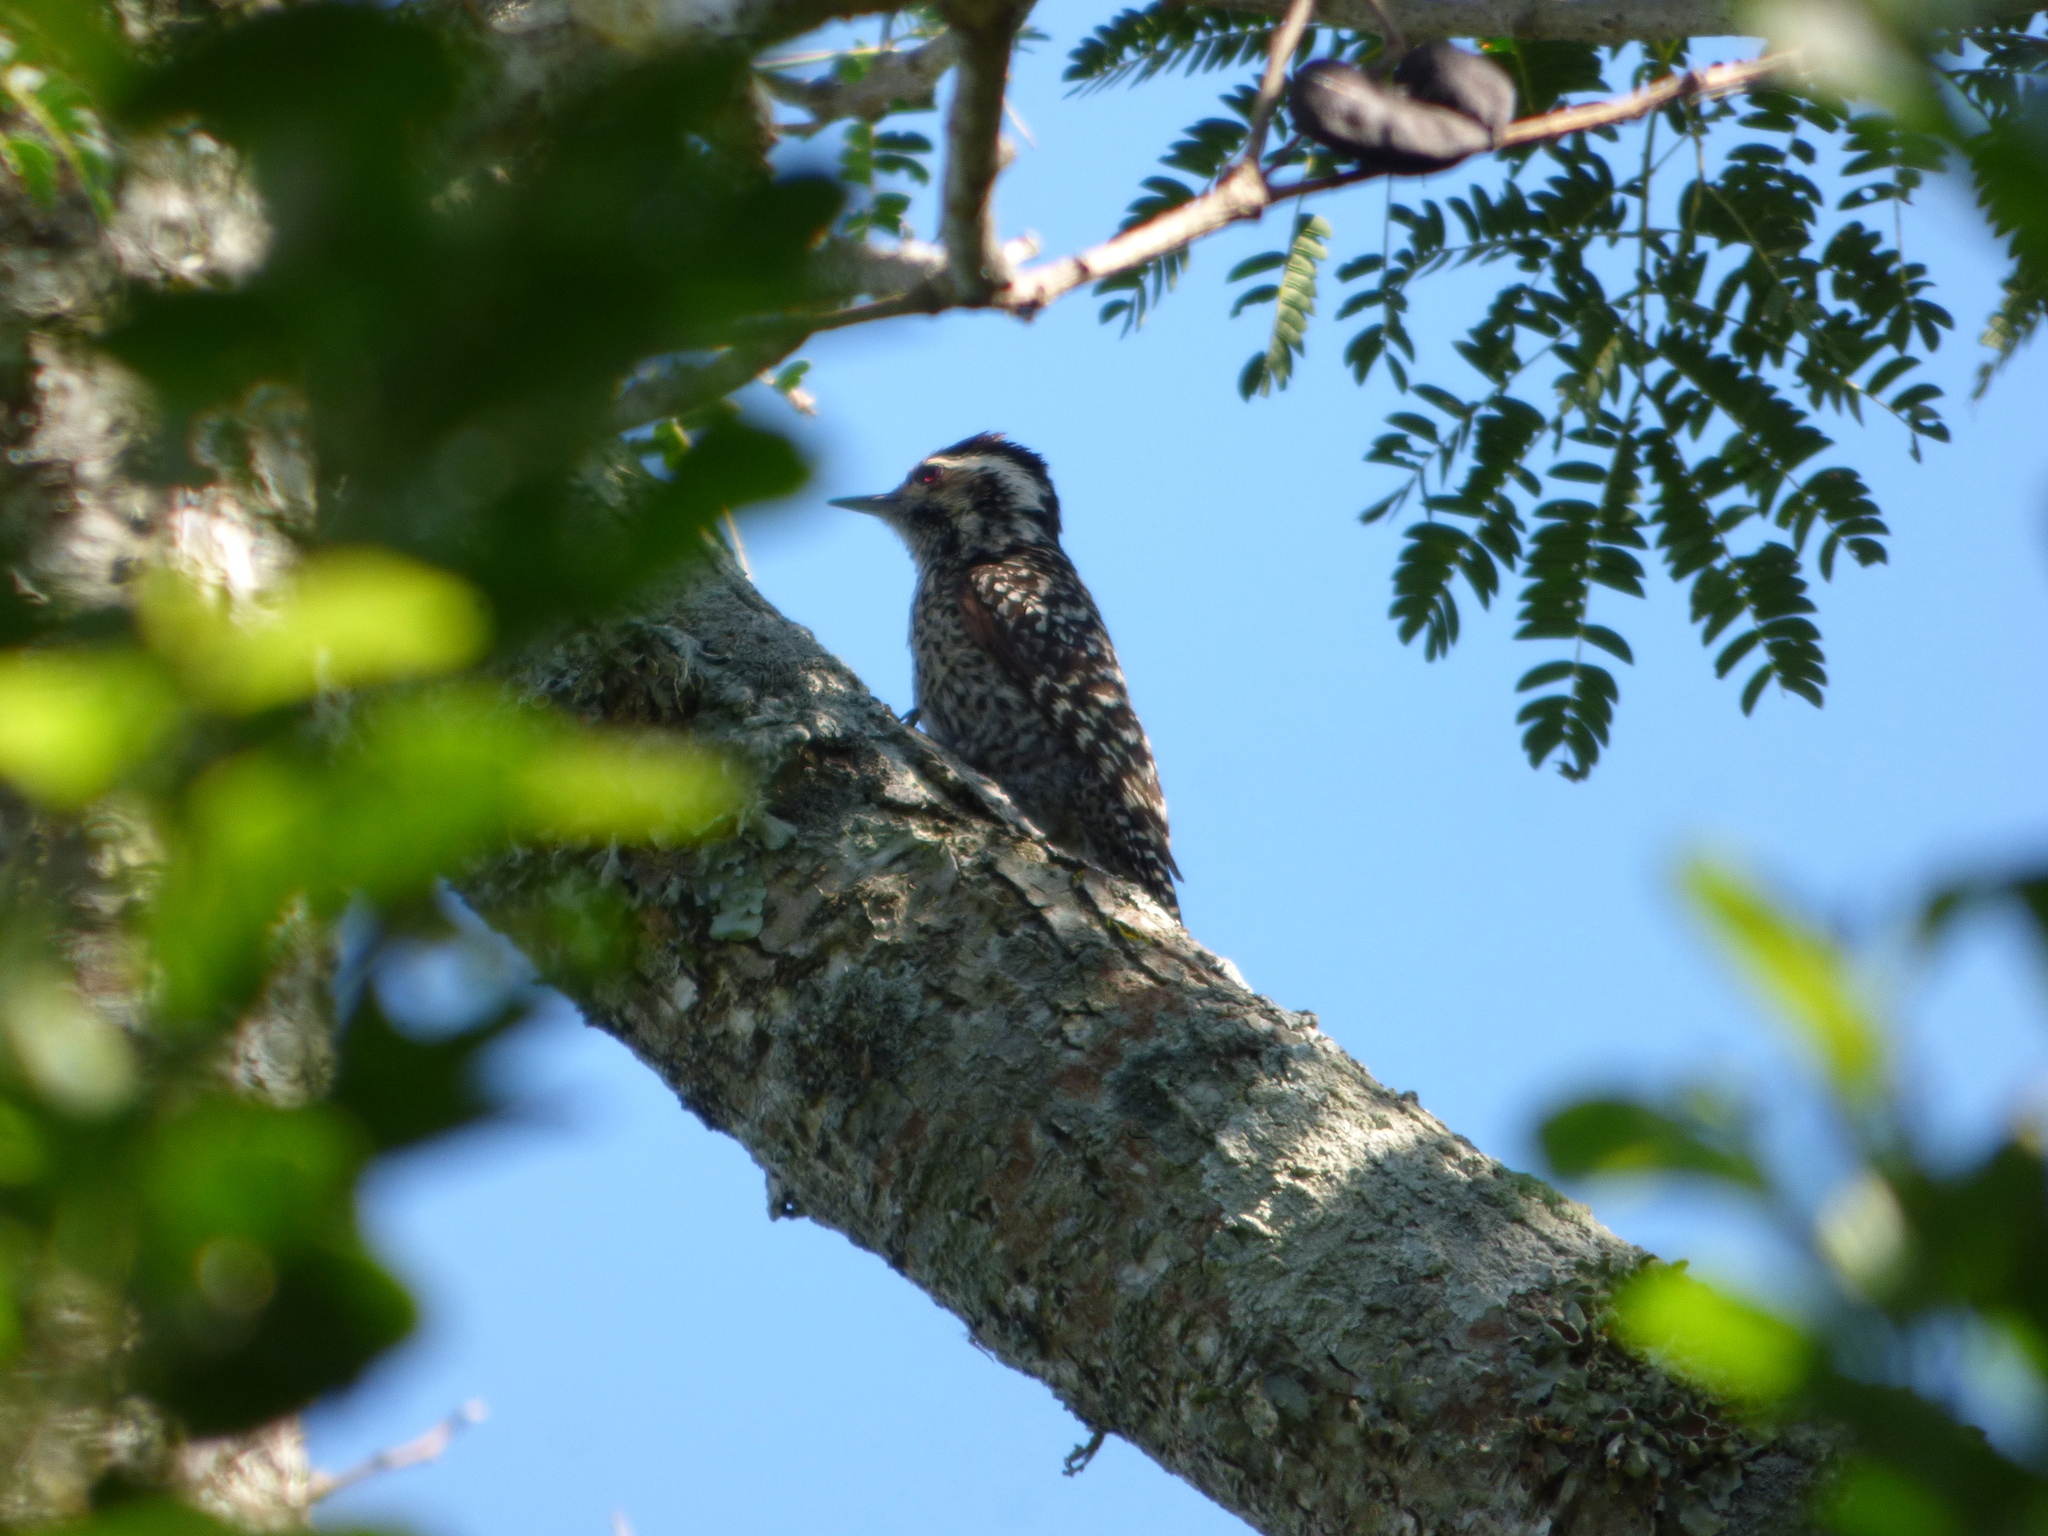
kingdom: Animalia
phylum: Chordata
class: Aves
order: Piciformes
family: Picidae
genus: Veniliornis
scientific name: Veniliornis mixtus
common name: Checkered woodpecker
